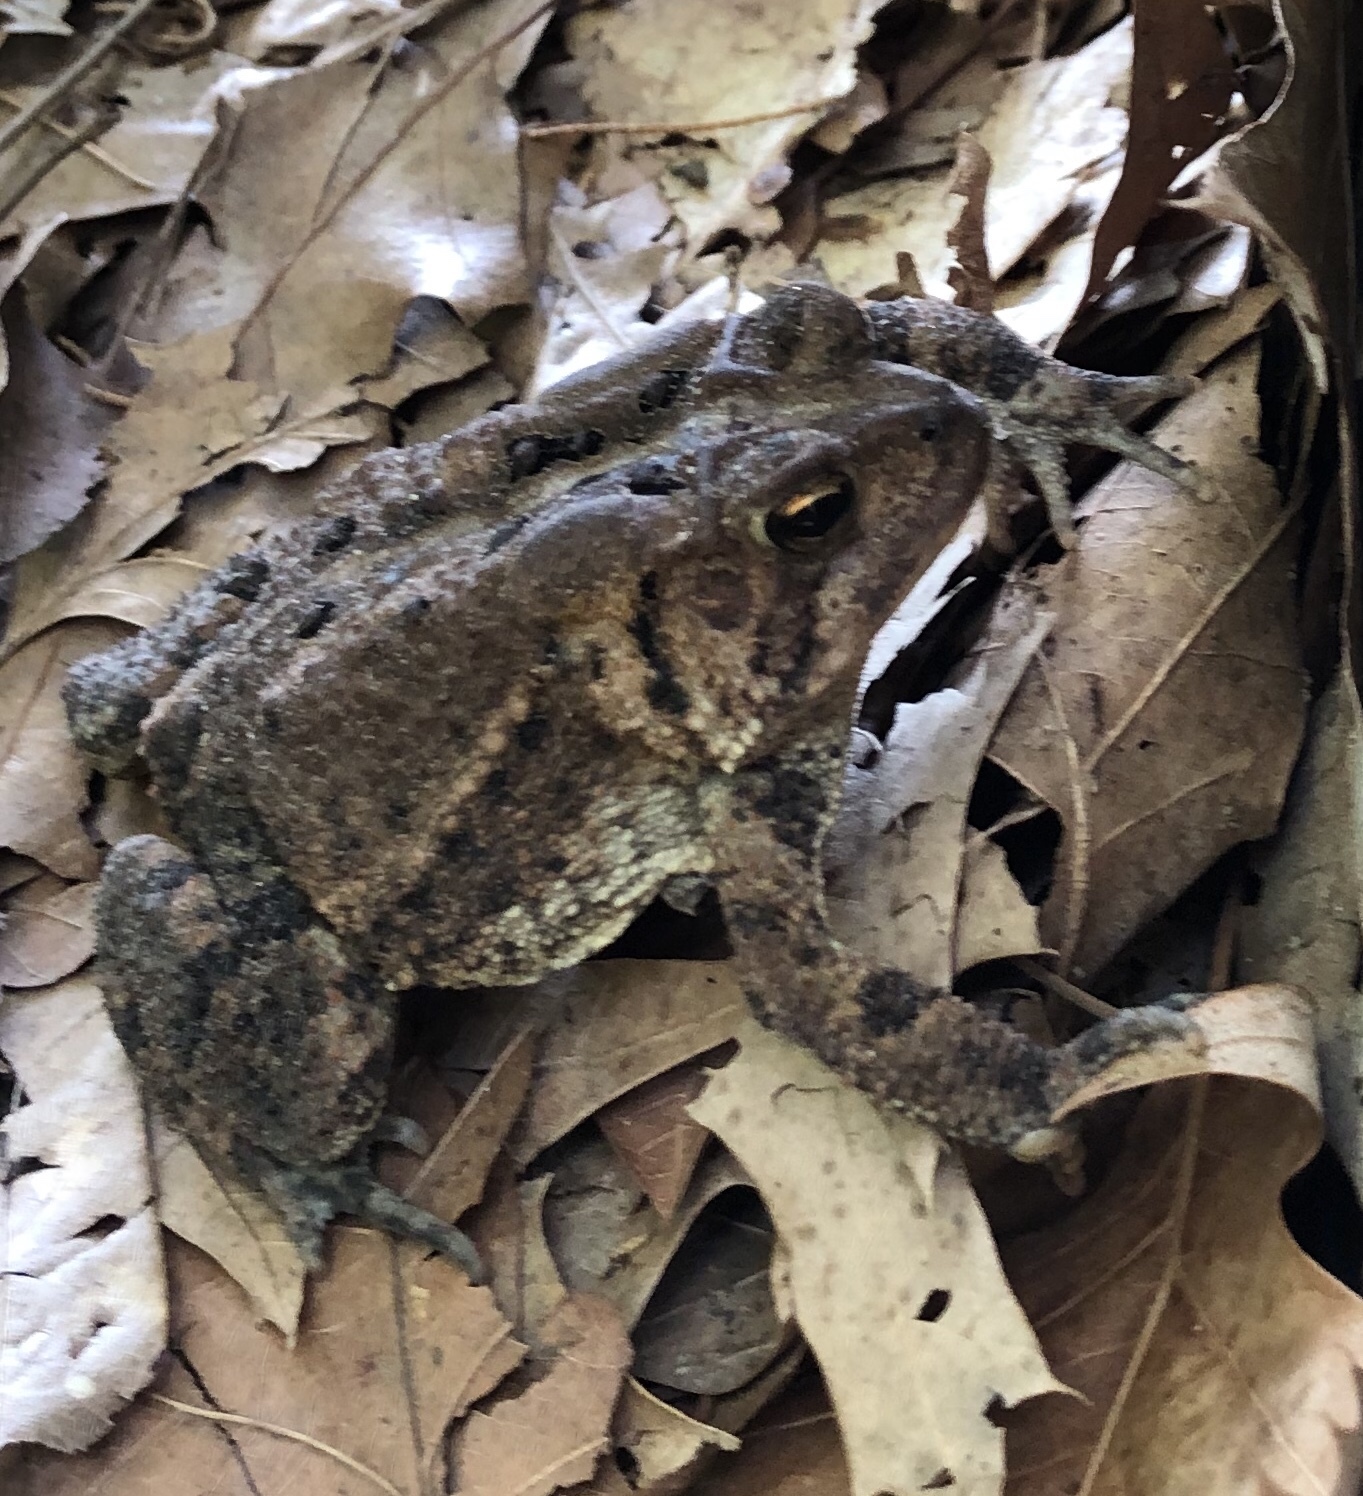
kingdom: Animalia
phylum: Chordata
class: Amphibia
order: Anura
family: Bufonidae
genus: Anaxyrus
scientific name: Anaxyrus americanus
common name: American toad
